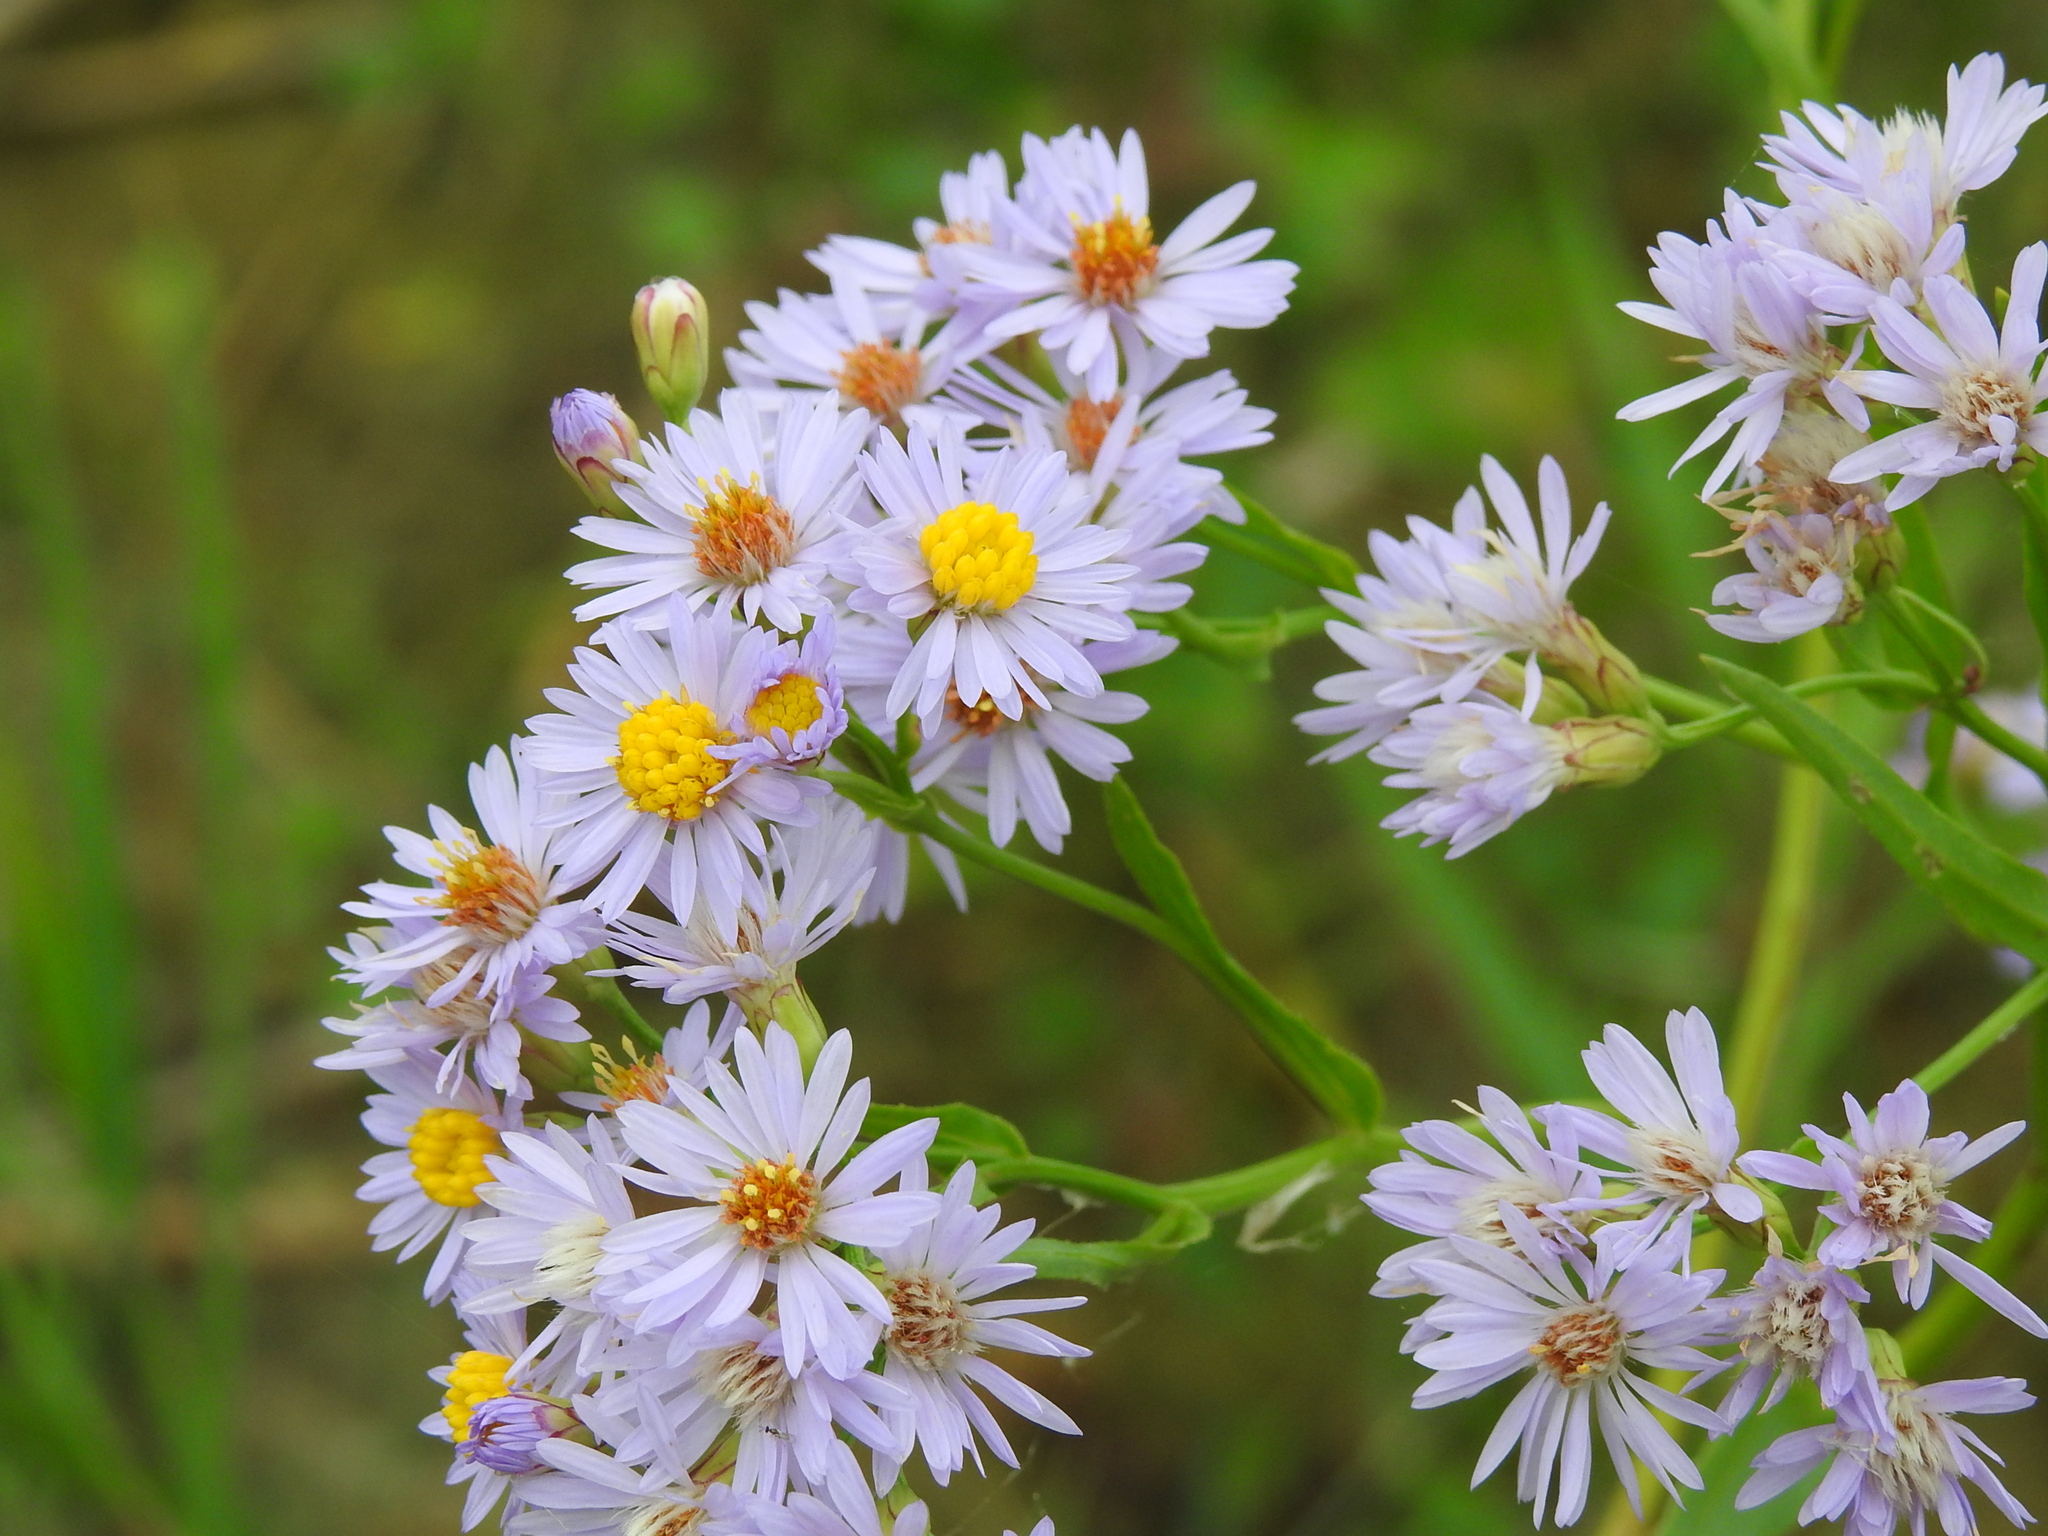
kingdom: Plantae
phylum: Tracheophyta
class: Magnoliopsida
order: Asterales
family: Asteraceae
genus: Tripolium
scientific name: Tripolium pannonicum
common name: Sea aster
